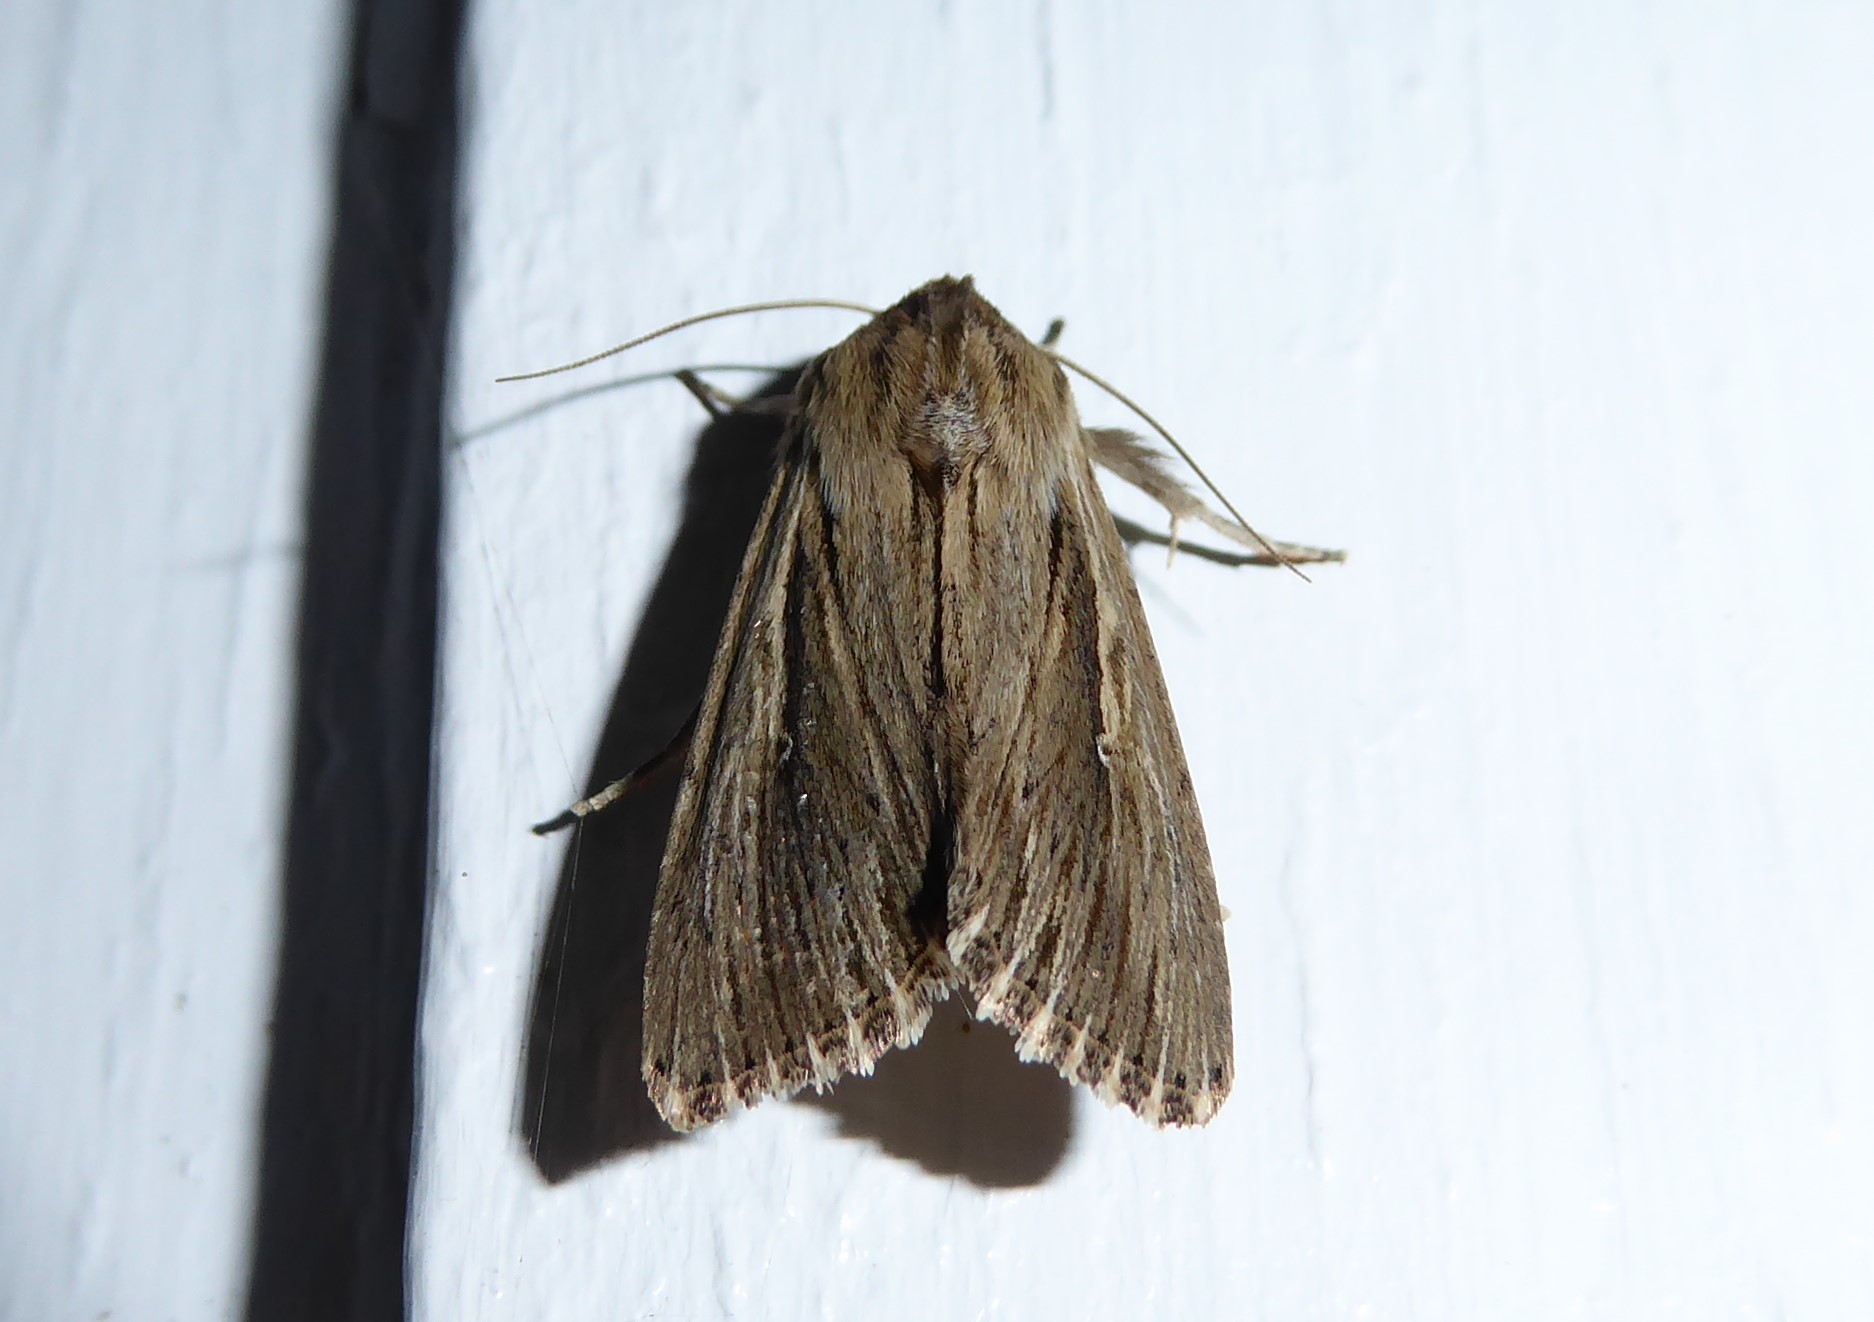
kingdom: Animalia
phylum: Arthropoda
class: Insecta
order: Lepidoptera
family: Noctuidae
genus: Persectania
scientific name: Persectania aversa
